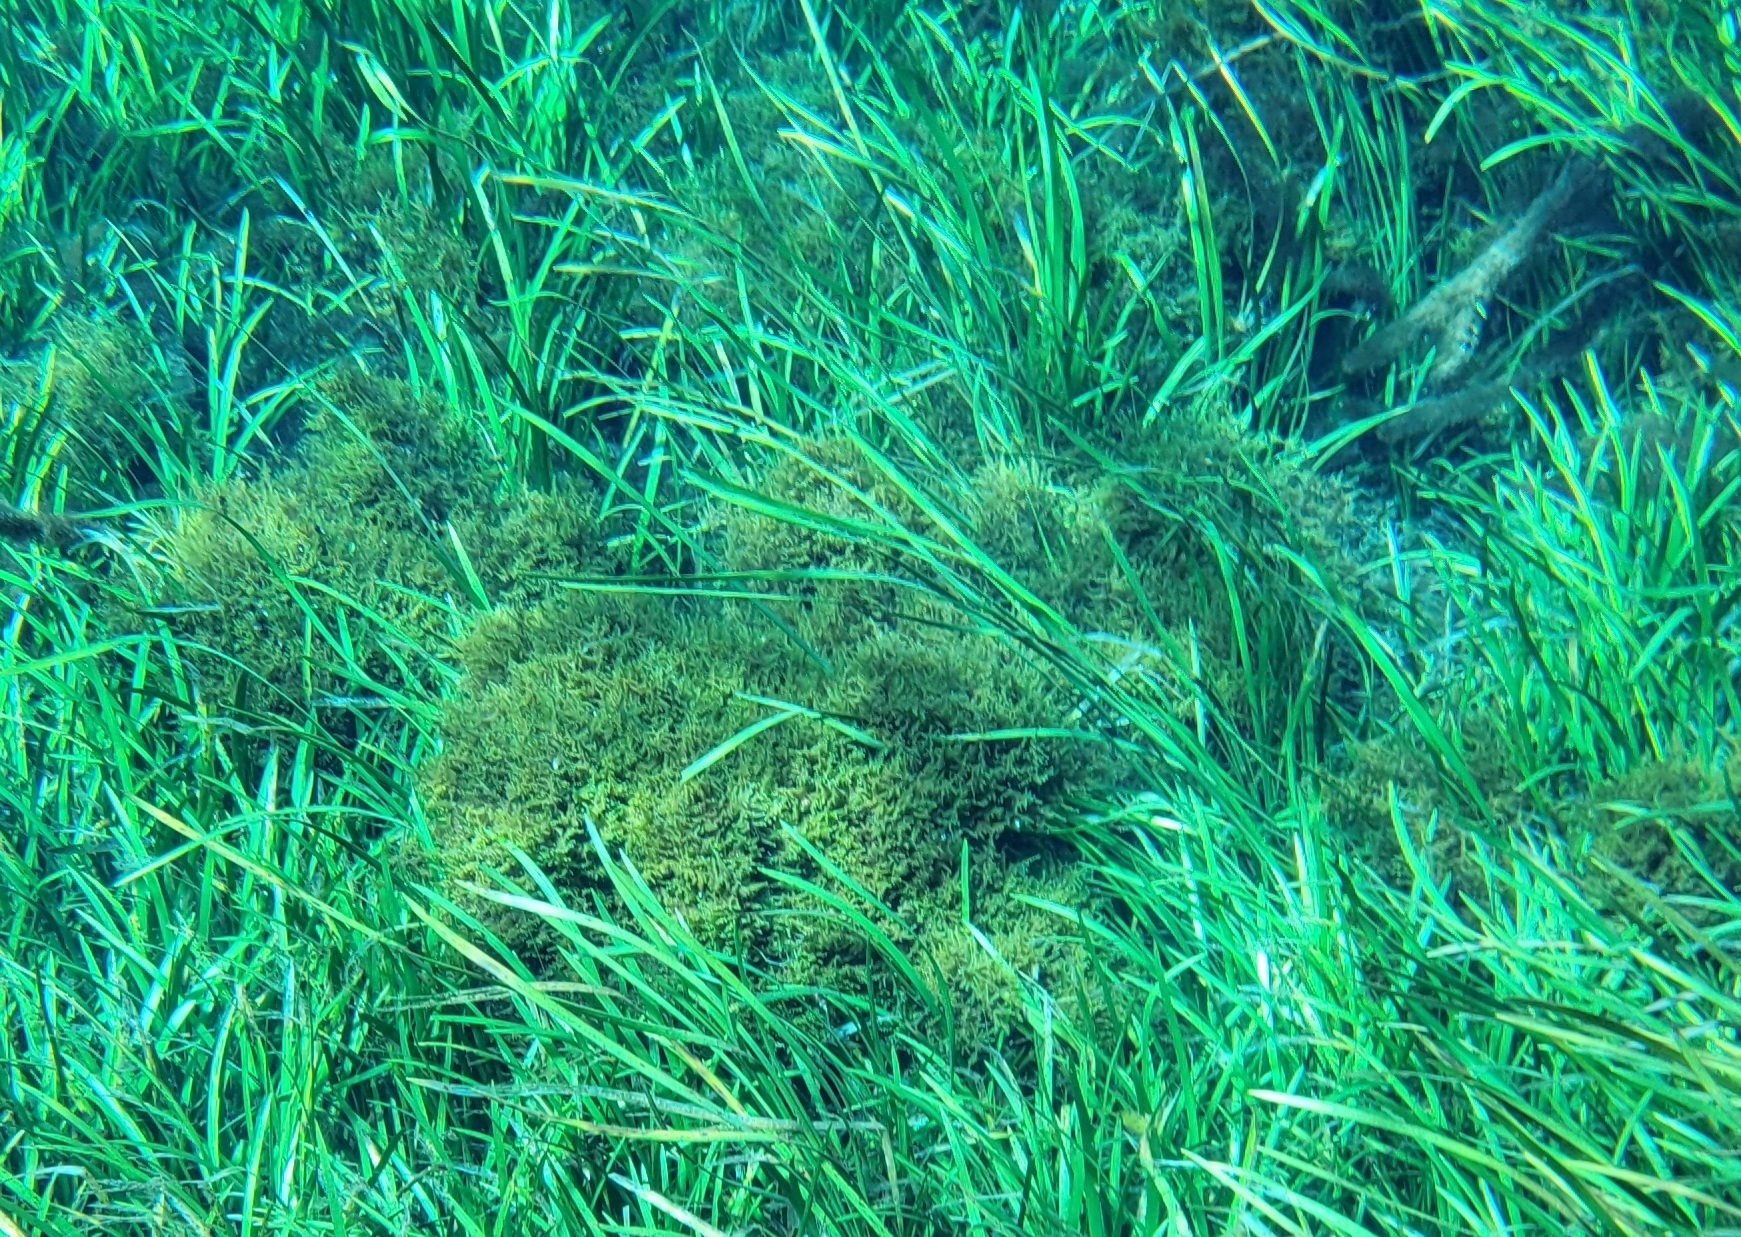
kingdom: Plantae
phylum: Bryophyta
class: Bryopsida
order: Hypnales
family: Fontinalaceae
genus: Fontinalis
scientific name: Fontinalis dalecarlica
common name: Slender water moss
